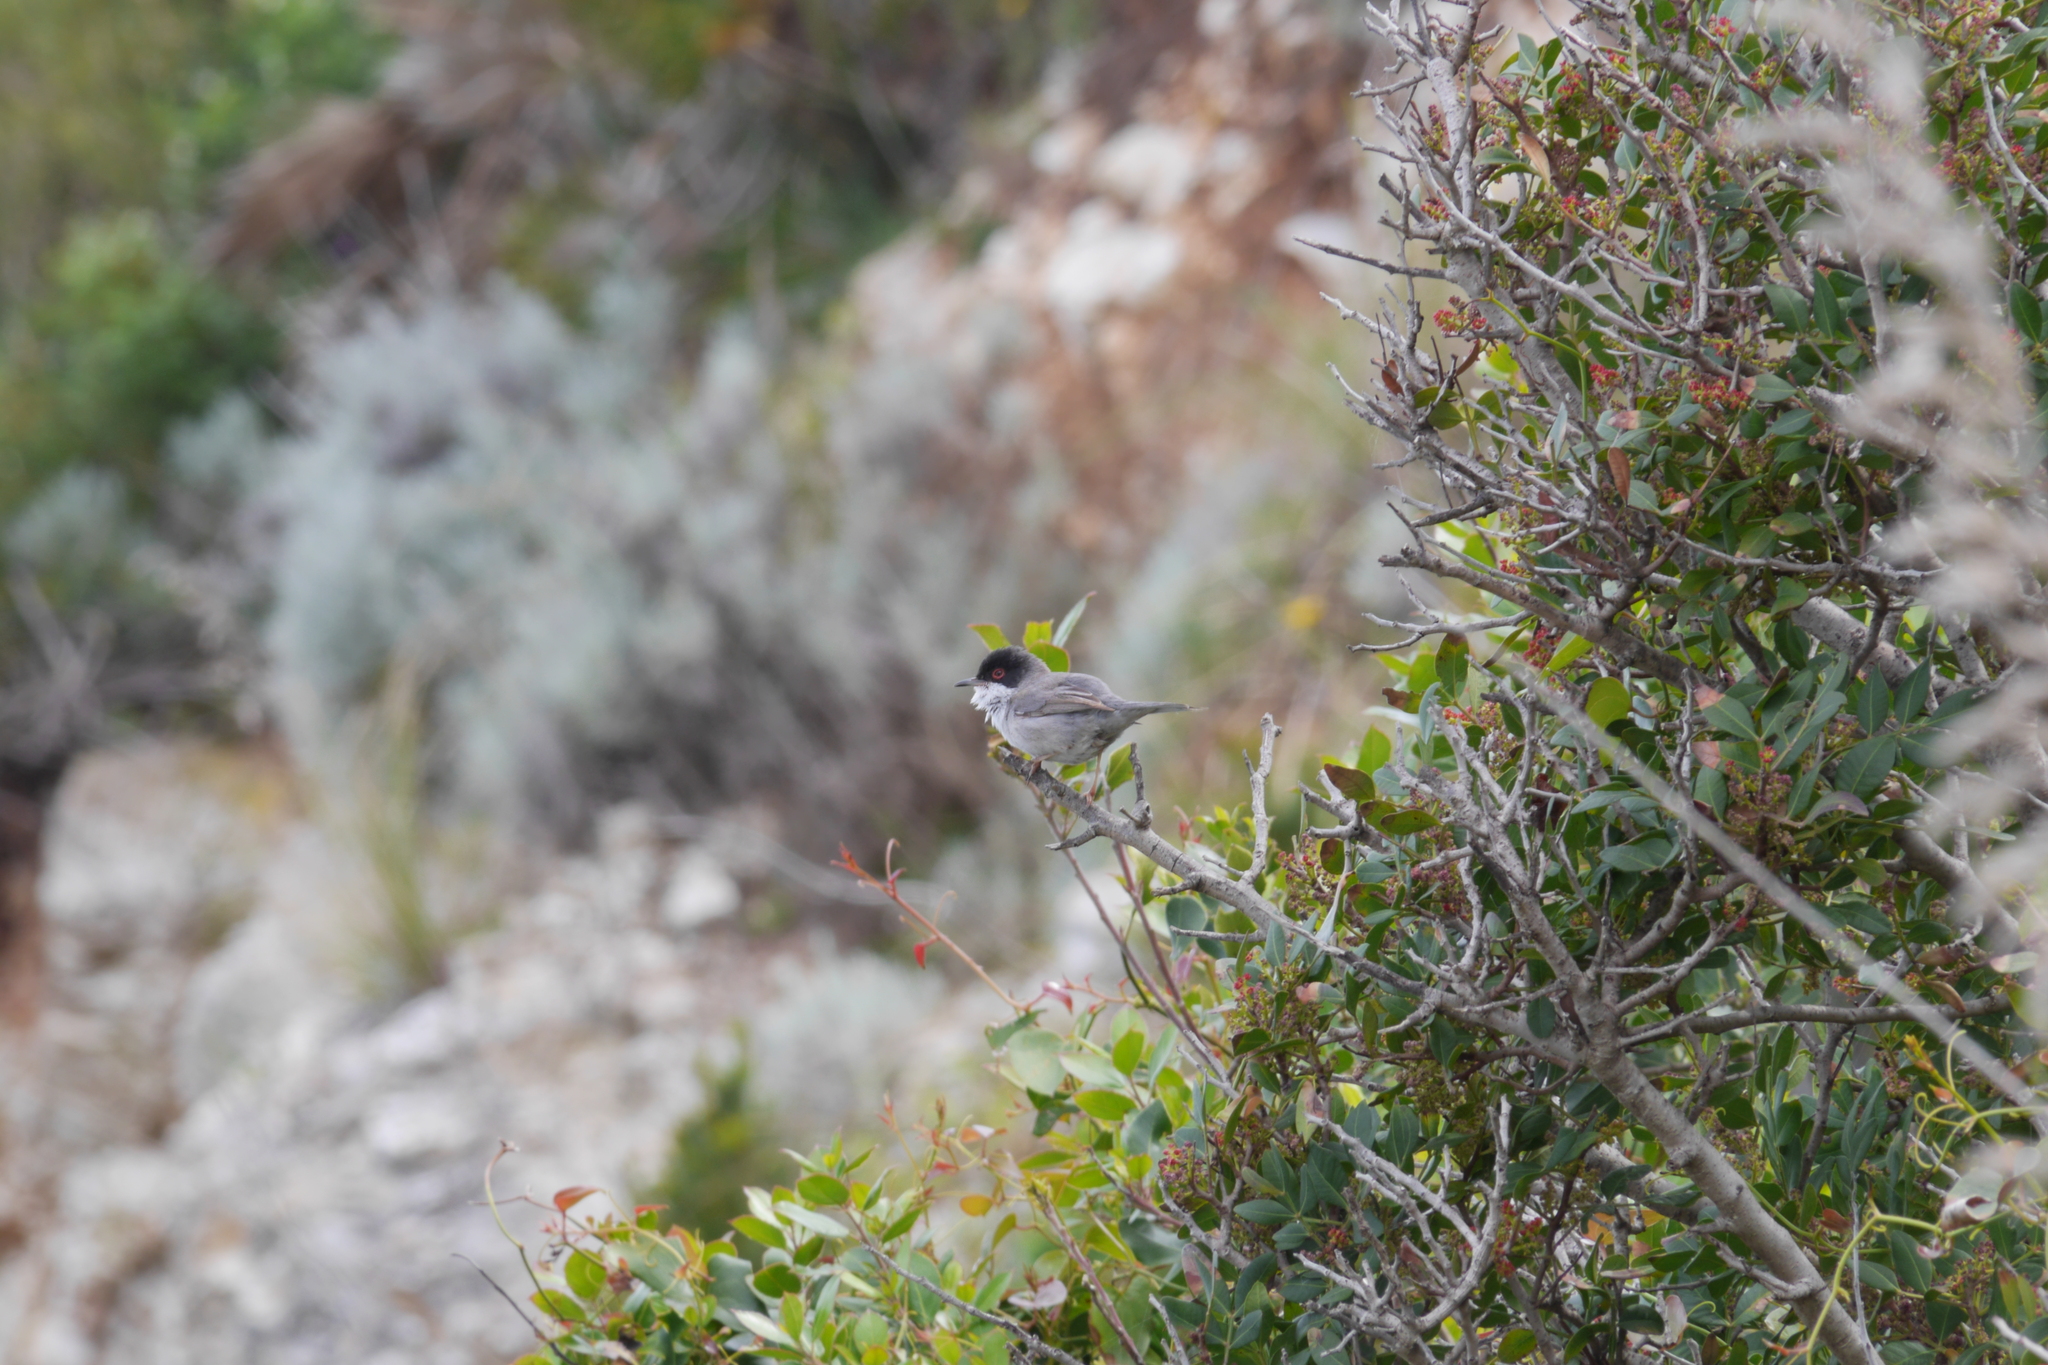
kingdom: Animalia
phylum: Chordata
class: Aves
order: Passeriformes
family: Sylviidae
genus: Curruca
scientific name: Curruca melanocephala
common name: Sardinian warbler
